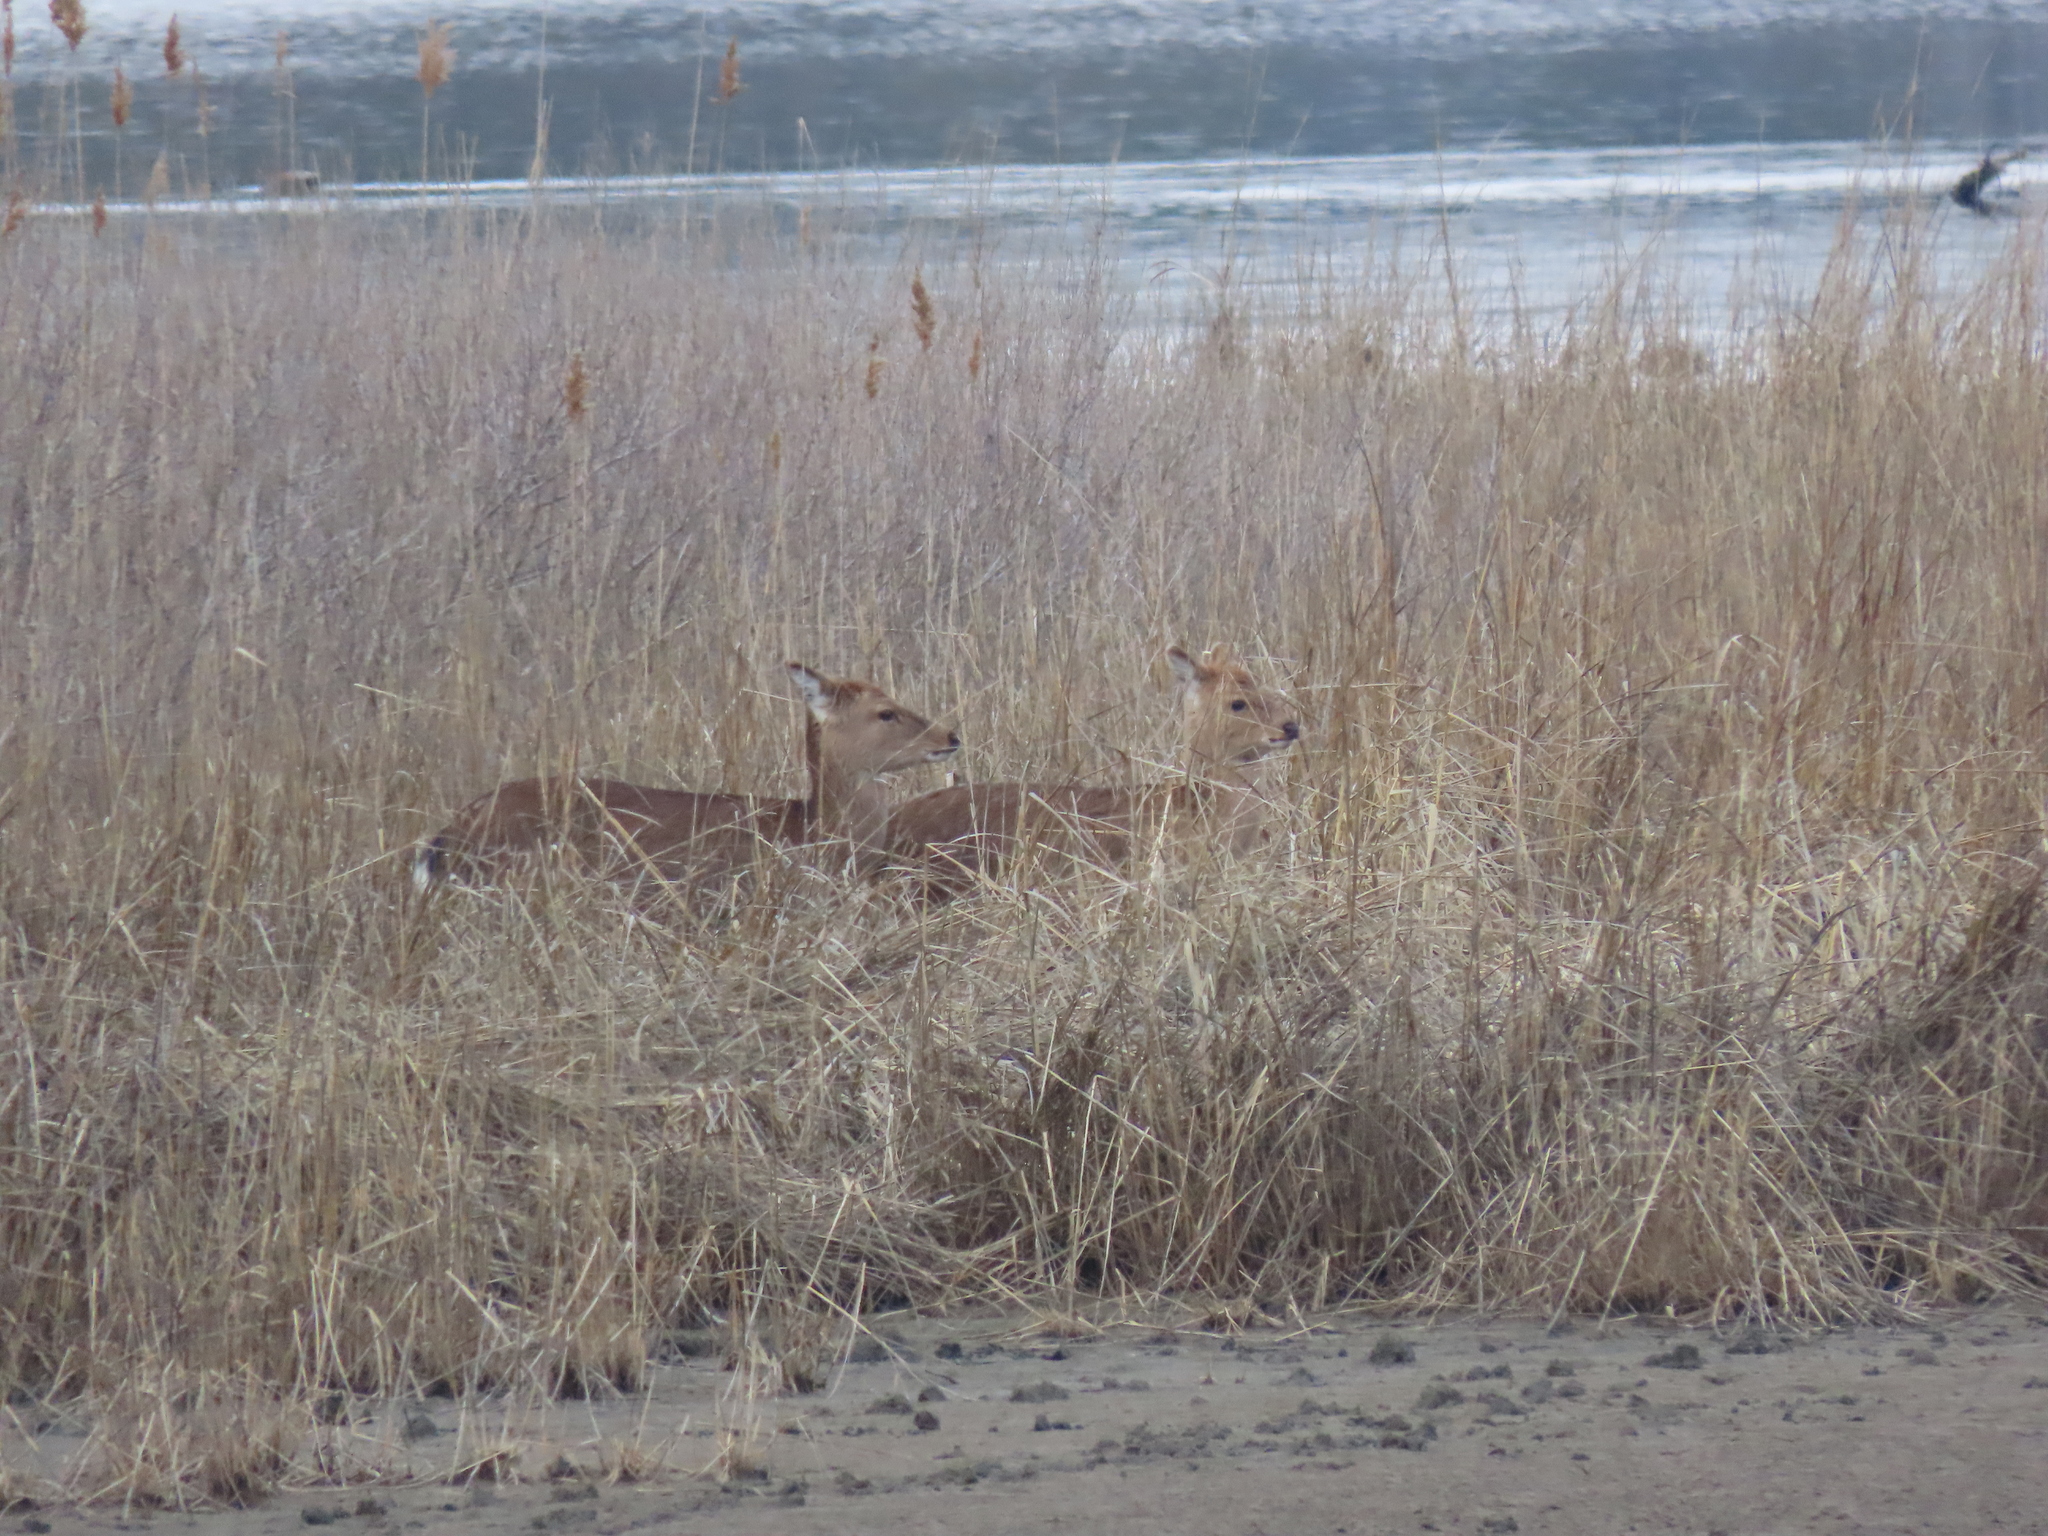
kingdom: Animalia
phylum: Chordata
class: Mammalia
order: Artiodactyla
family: Cervidae
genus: Cervus
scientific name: Cervus nippon
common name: Sika deer
